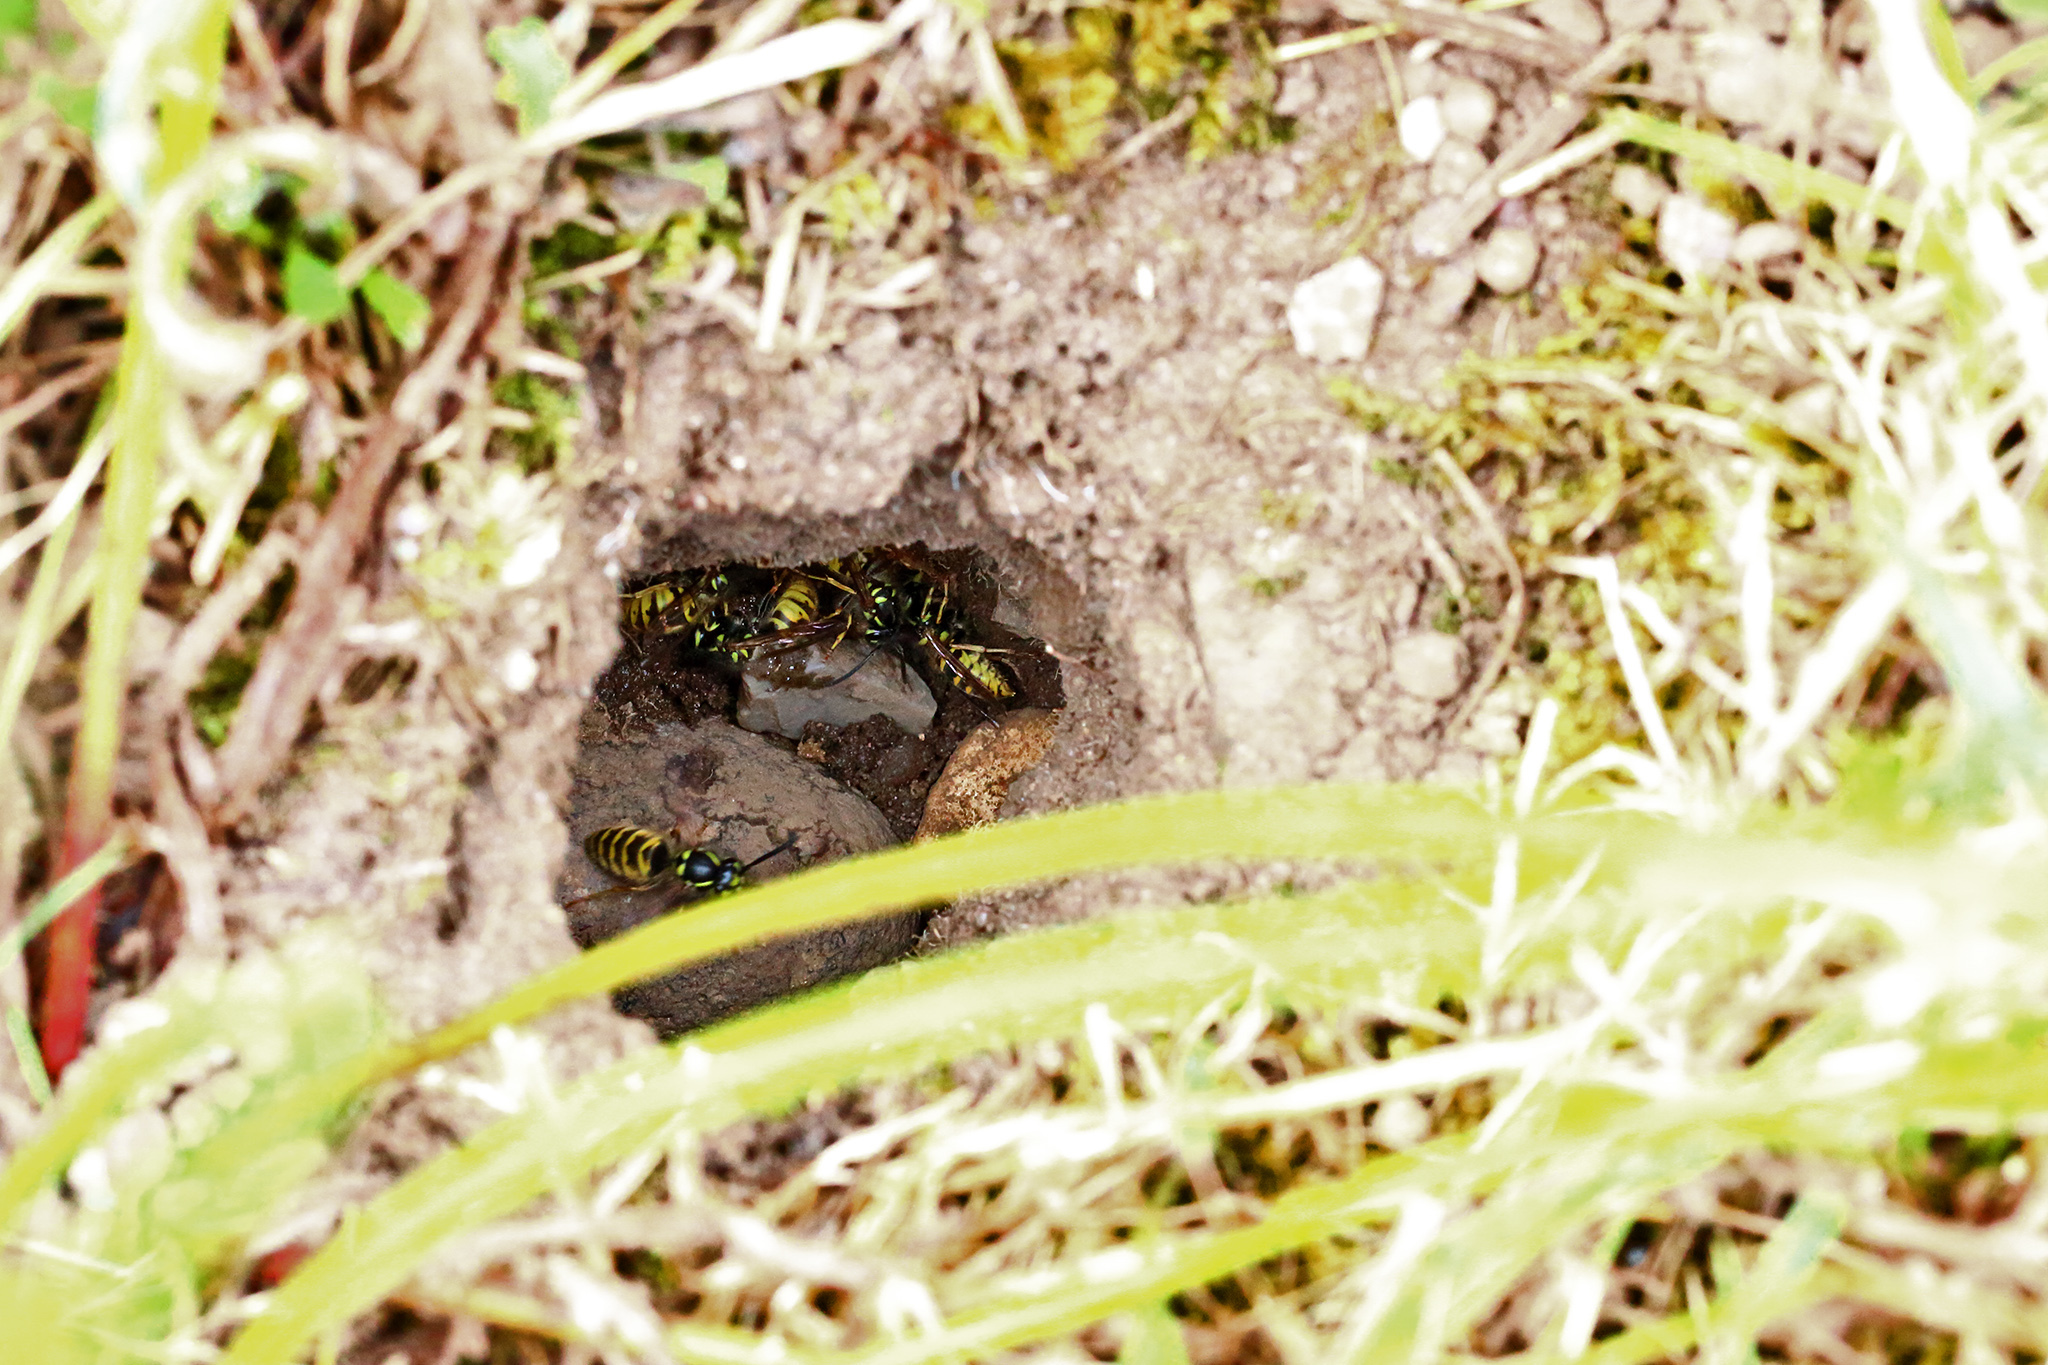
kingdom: Animalia
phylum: Arthropoda
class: Insecta
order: Hymenoptera
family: Vespidae
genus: Vespula
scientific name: Vespula vulgaris
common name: Common wasp
